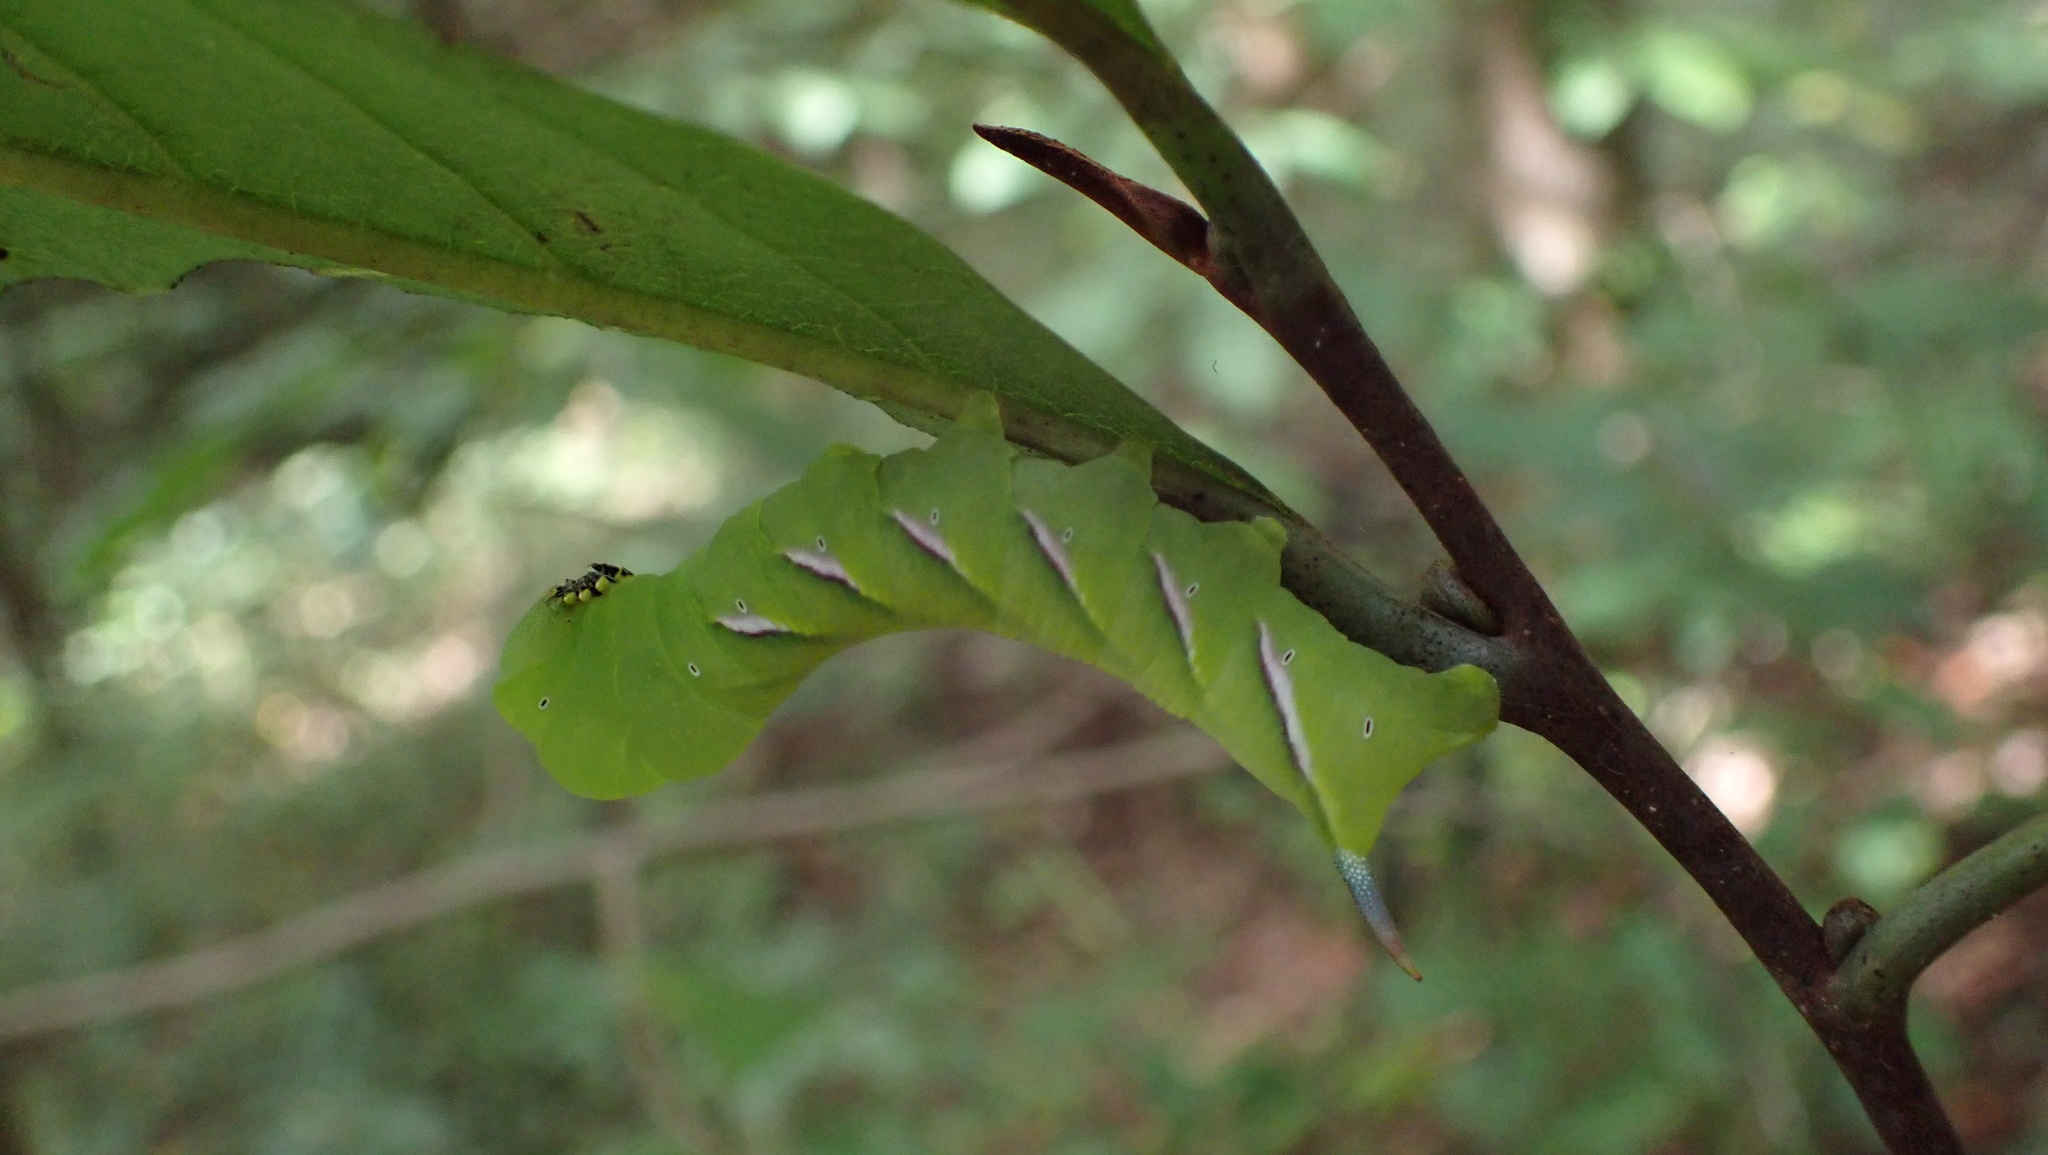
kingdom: Animalia
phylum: Arthropoda
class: Insecta
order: Lepidoptera
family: Sphingidae
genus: Dolba
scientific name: Dolba hyloeus
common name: Pawpaw sphinx
